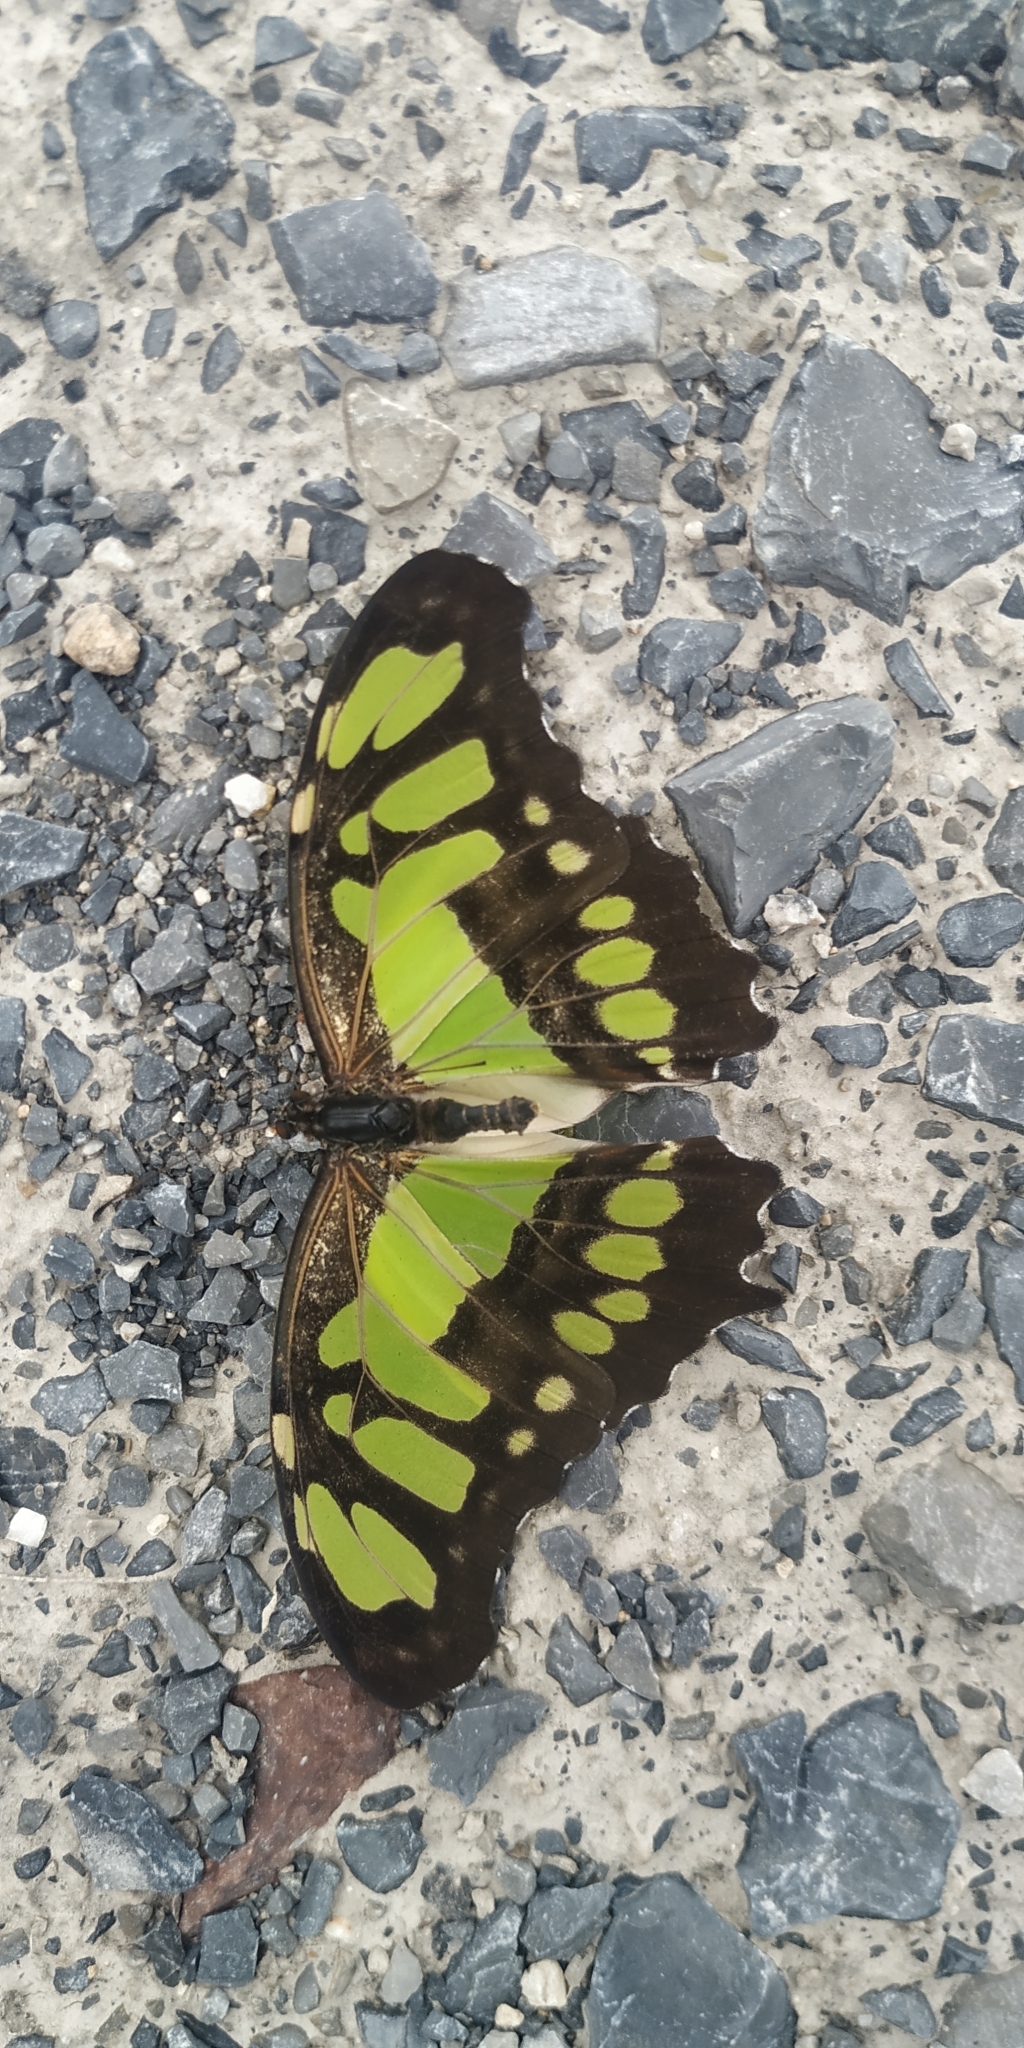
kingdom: Animalia
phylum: Arthropoda
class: Insecta
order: Lepidoptera
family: Nymphalidae
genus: Siproeta
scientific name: Siproeta stelenes
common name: Malachite
